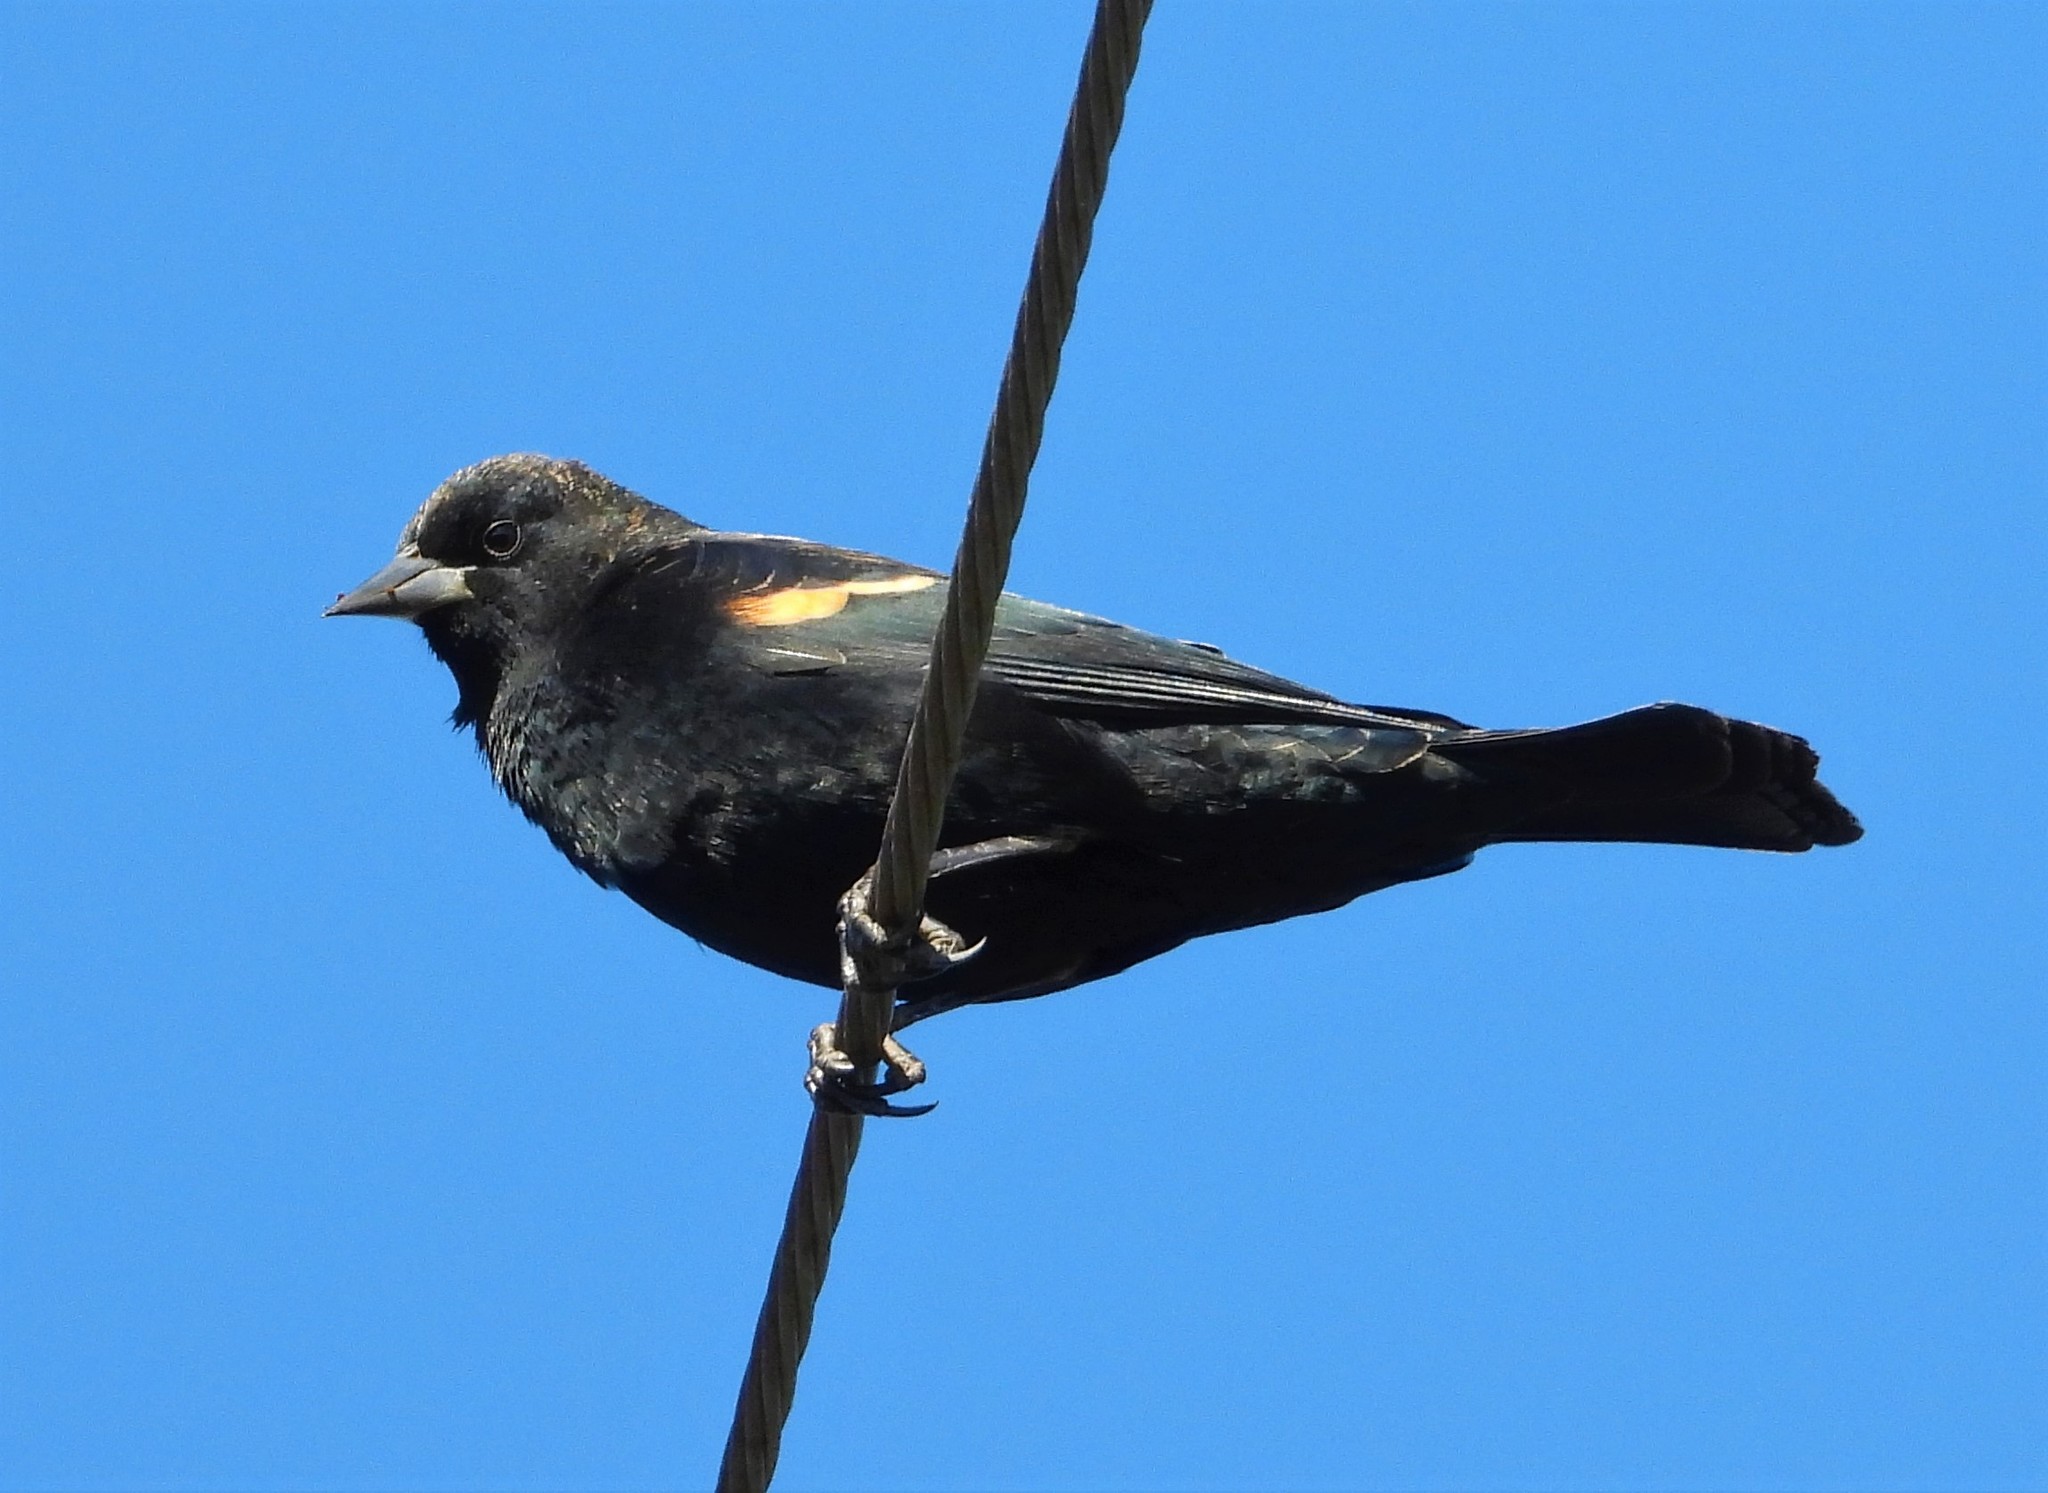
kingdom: Animalia
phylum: Chordata
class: Aves
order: Passeriformes
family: Icteridae
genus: Agelaius
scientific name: Agelaius phoeniceus
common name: Red-winged blackbird
